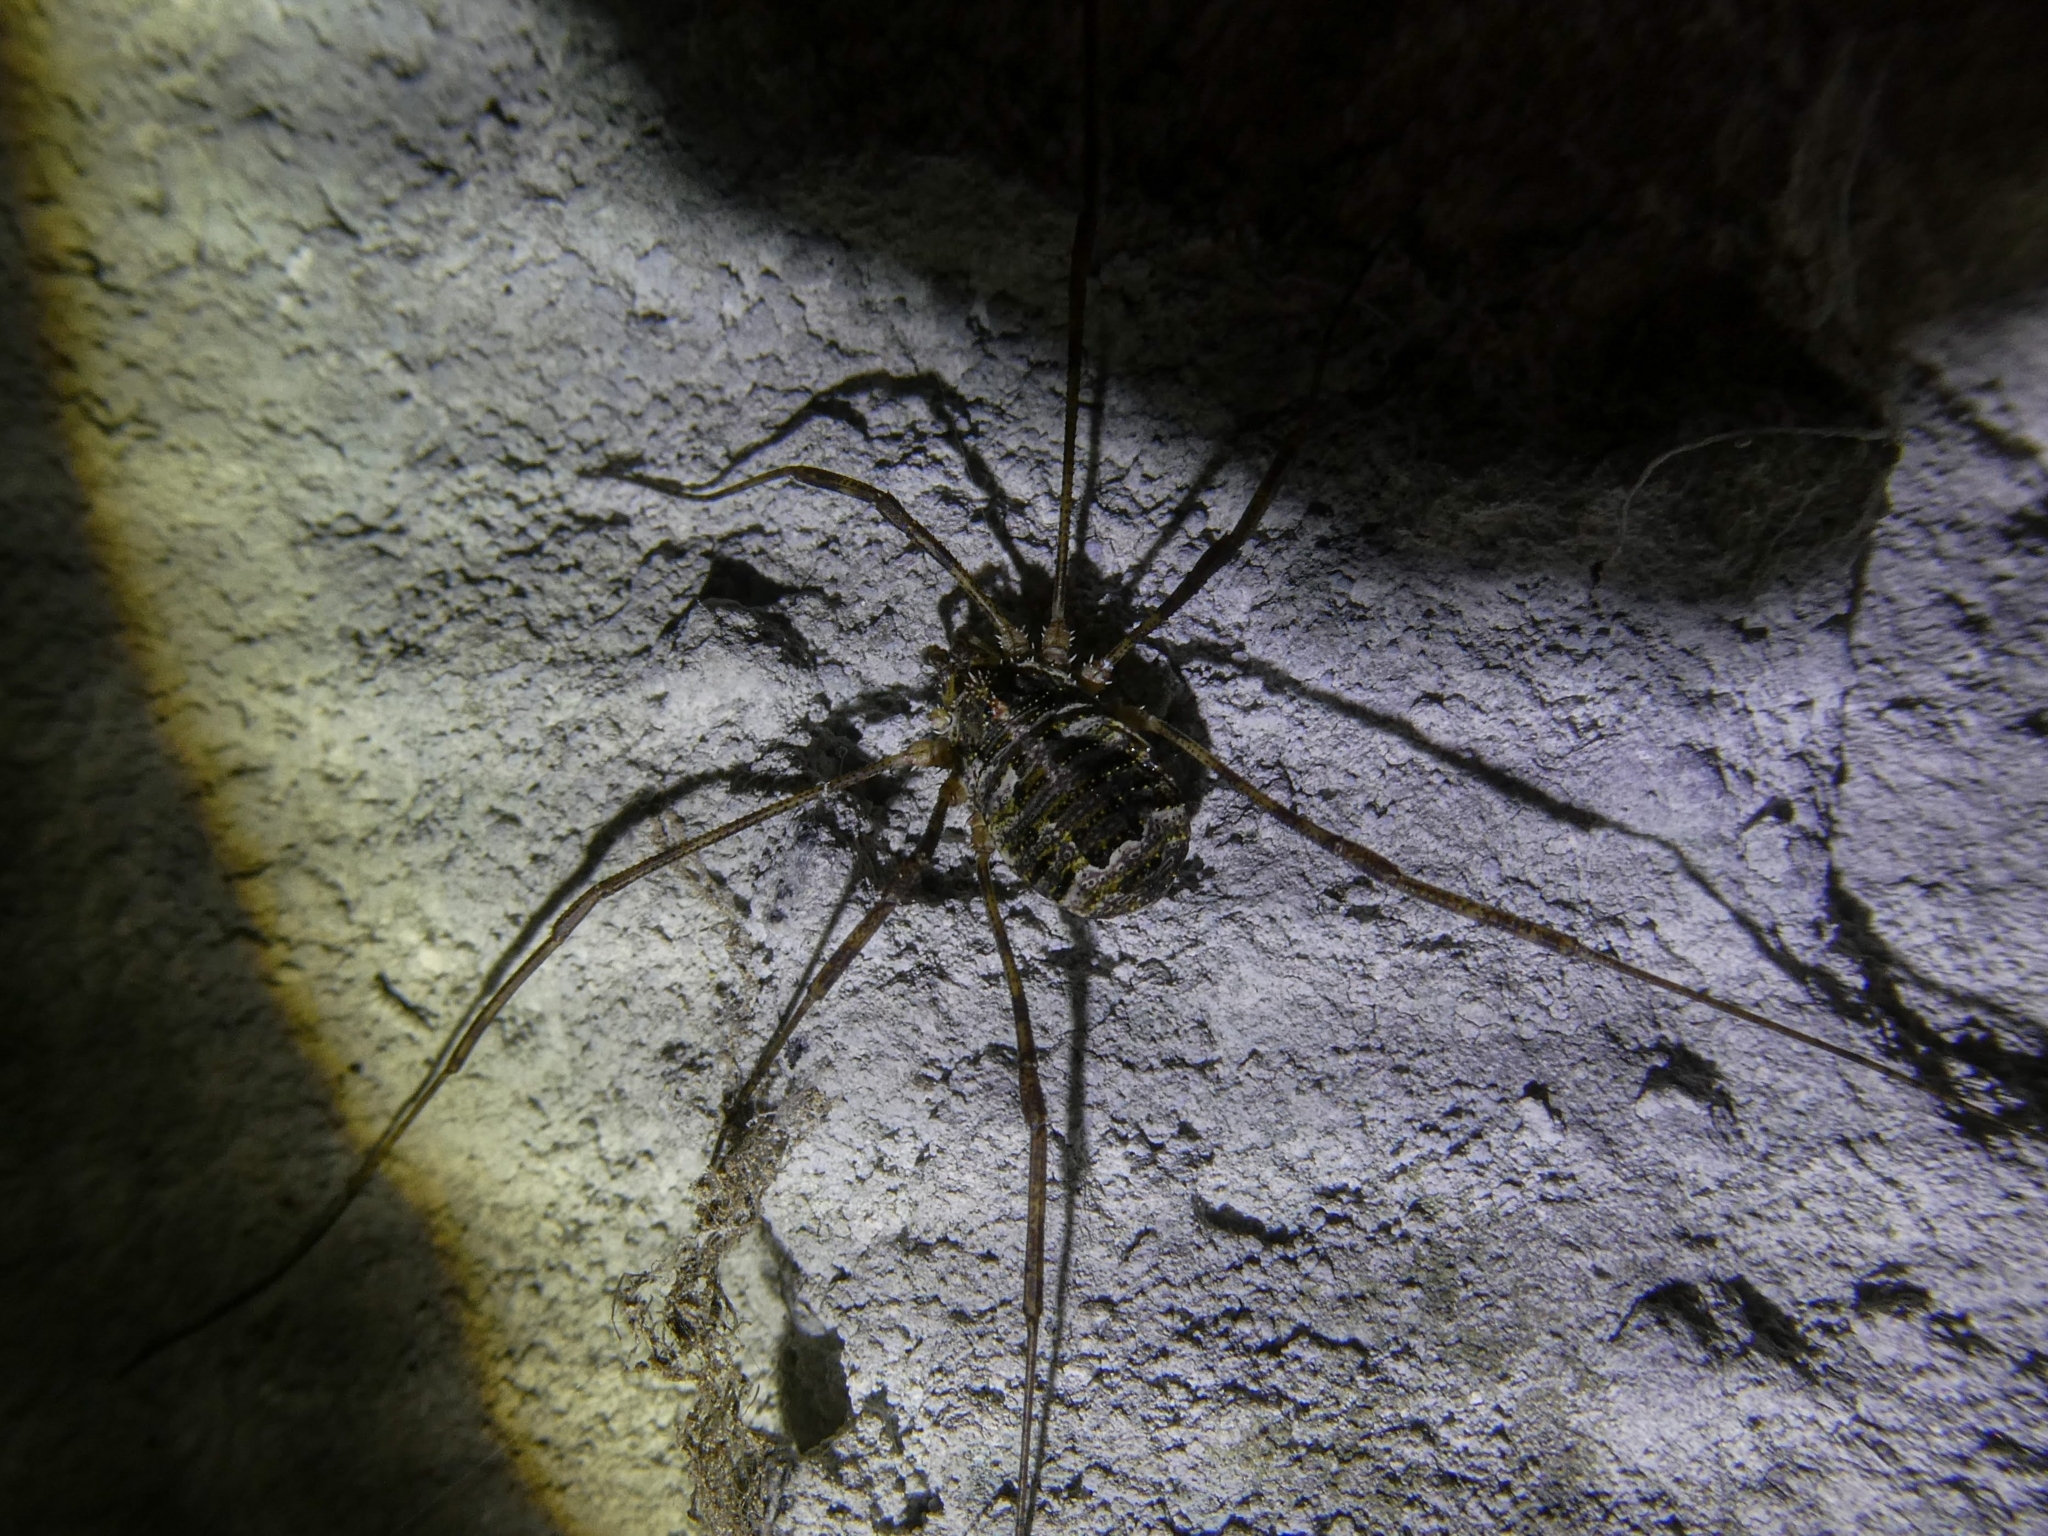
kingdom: Animalia
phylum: Arthropoda
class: Arachnida
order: Opiliones
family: Phalangiidae
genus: Lacinius
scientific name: Lacinius dentiger
